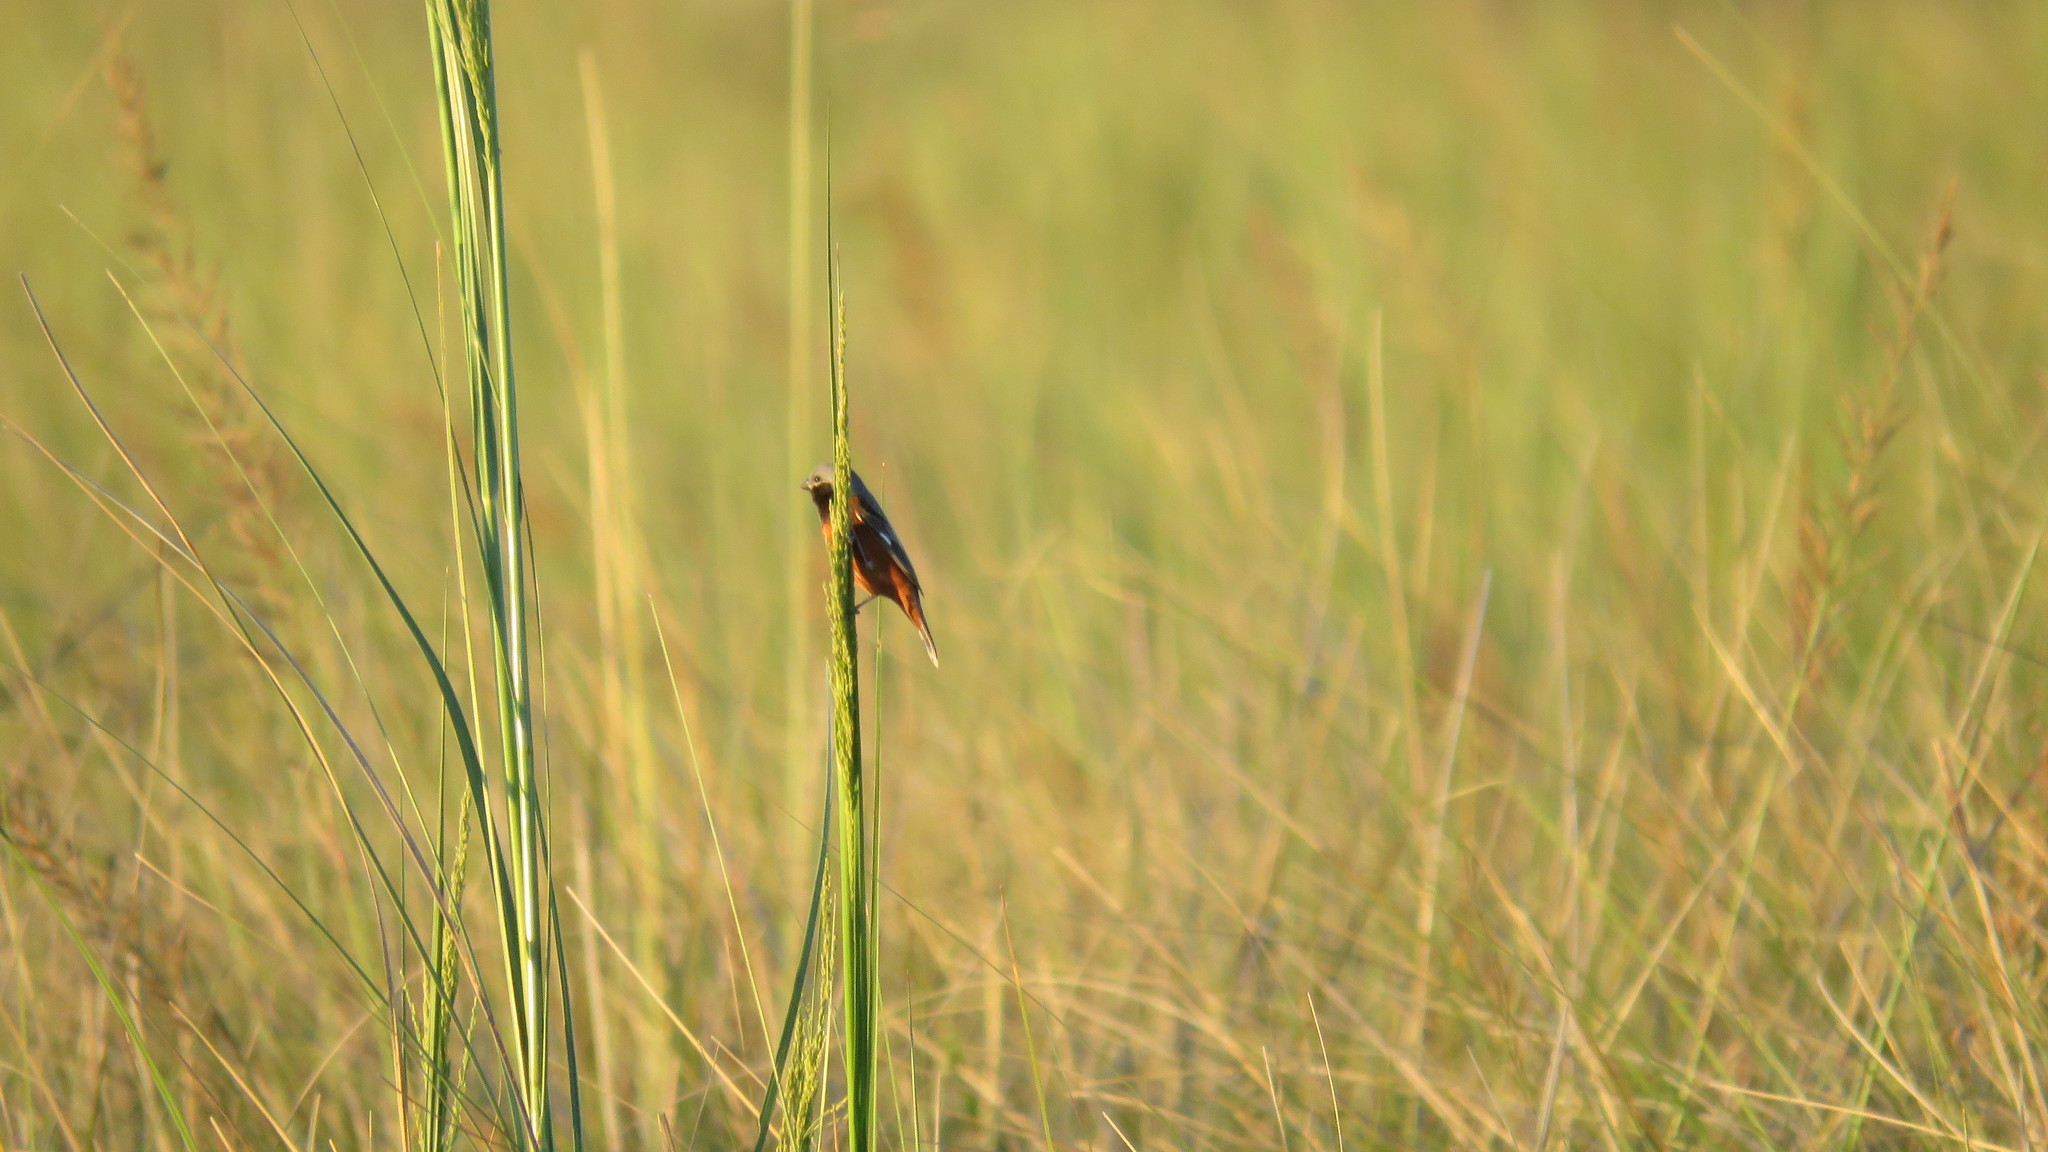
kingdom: Animalia
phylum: Chordata
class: Aves
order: Passeriformes
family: Thraupidae
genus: Sporophila
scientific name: Sporophila ruficollis
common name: Dark-throated seedeater
